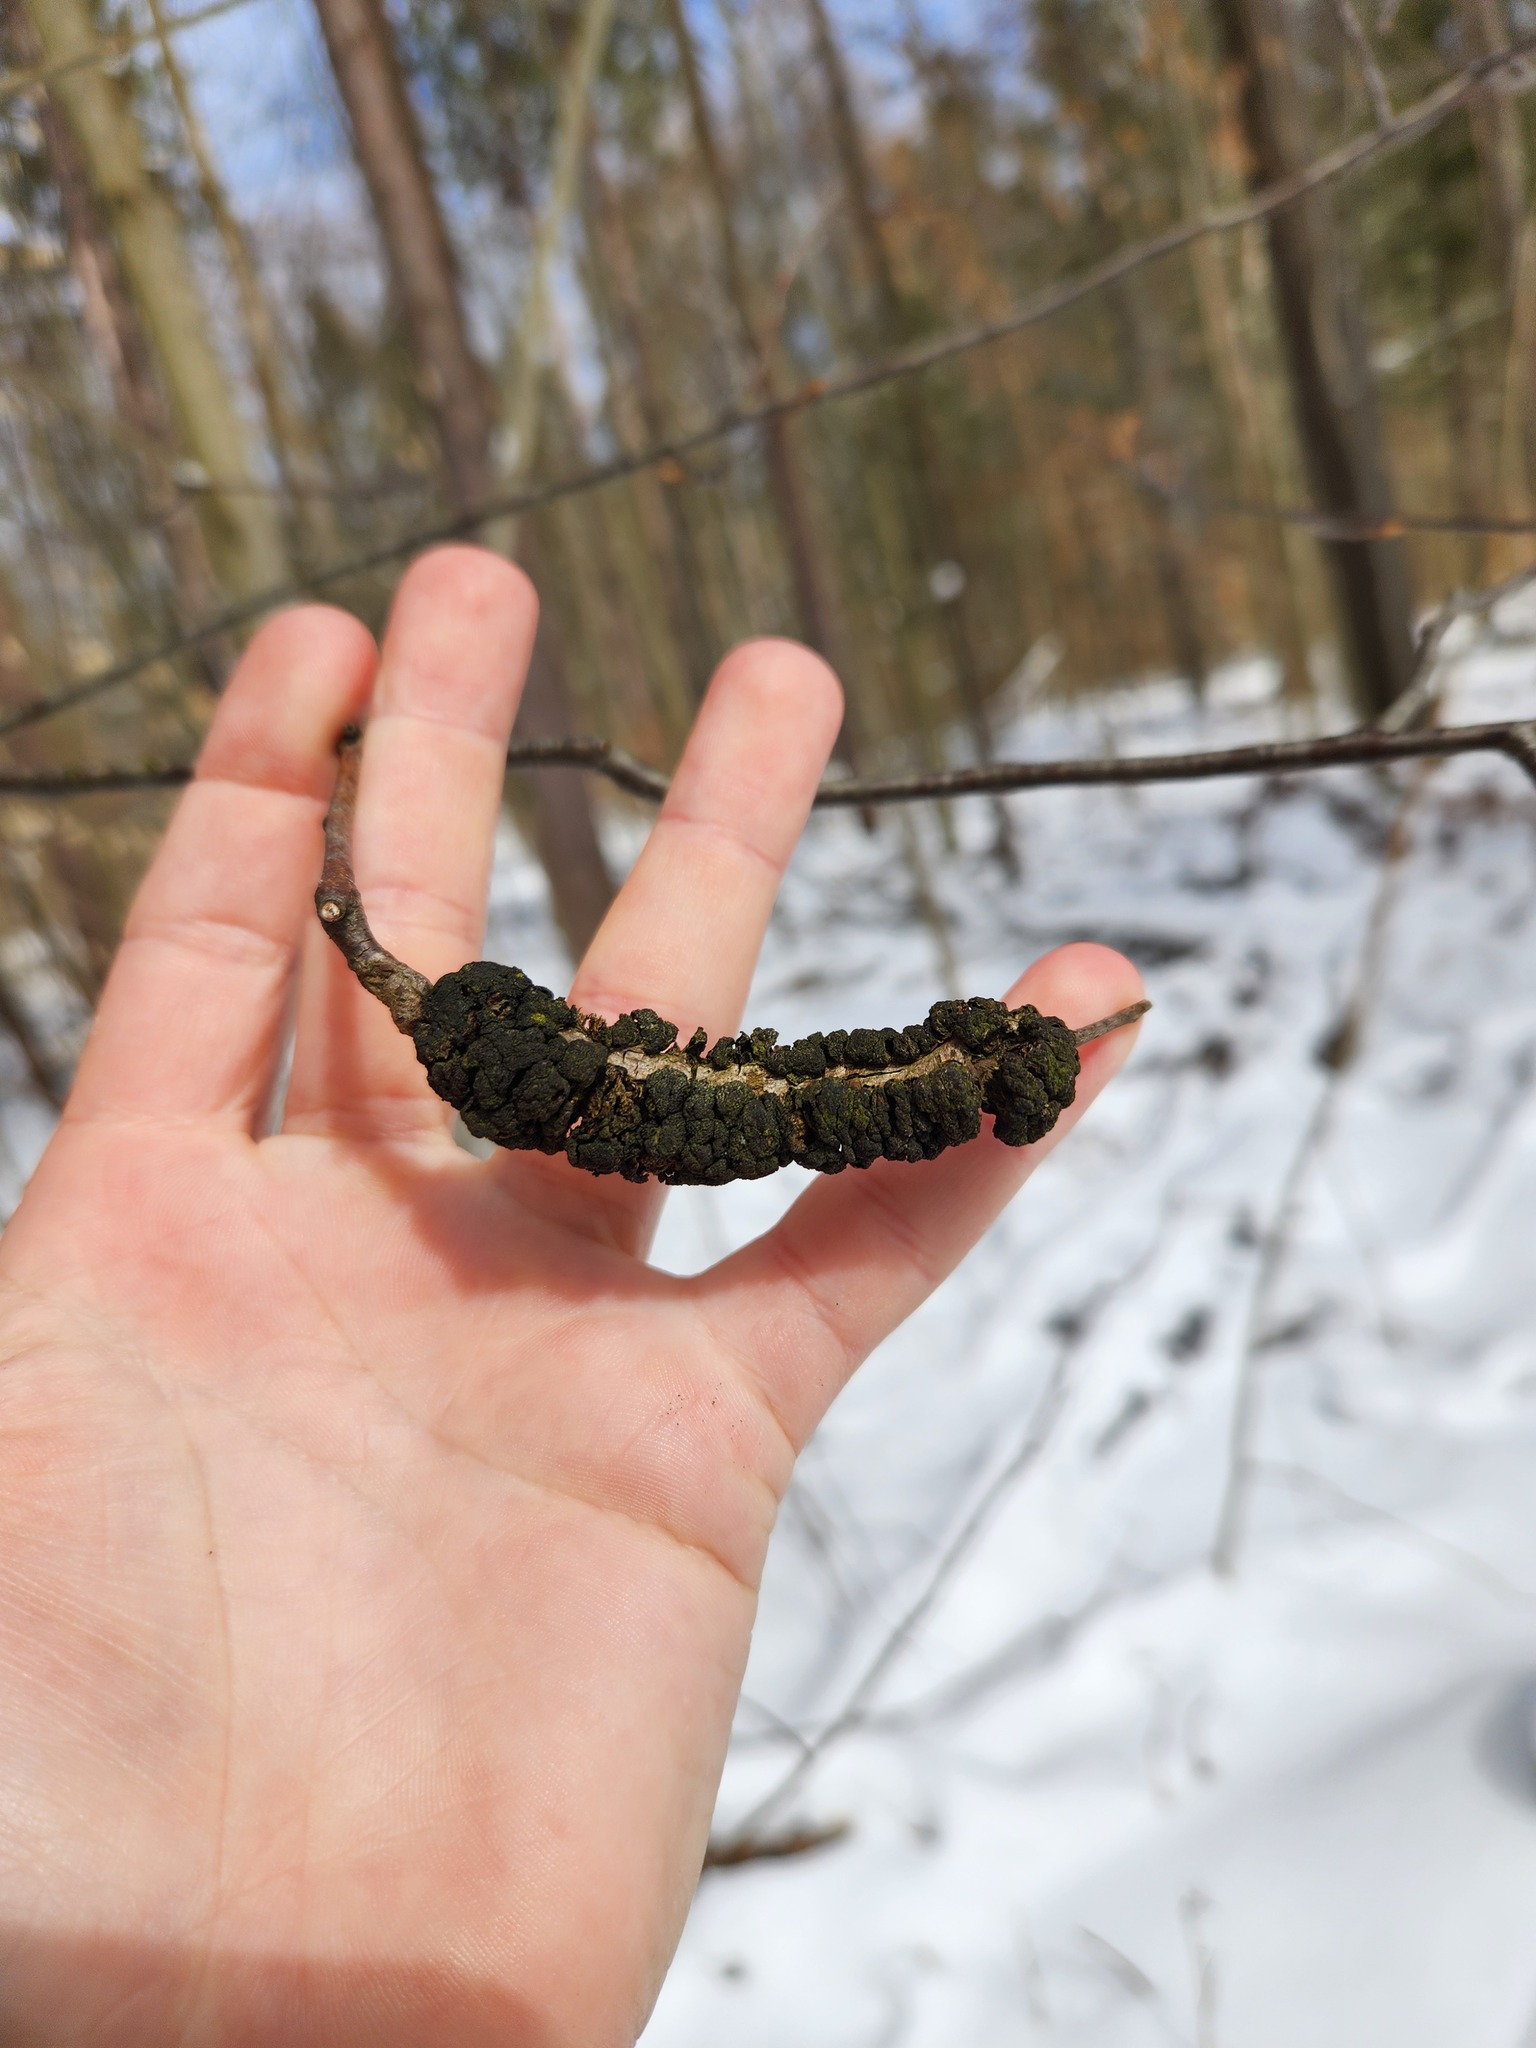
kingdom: Fungi
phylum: Ascomycota
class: Dothideomycetes
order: Venturiales
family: Venturiaceae
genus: Apiosporina
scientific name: Apiosporina morbosa
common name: Black knot
